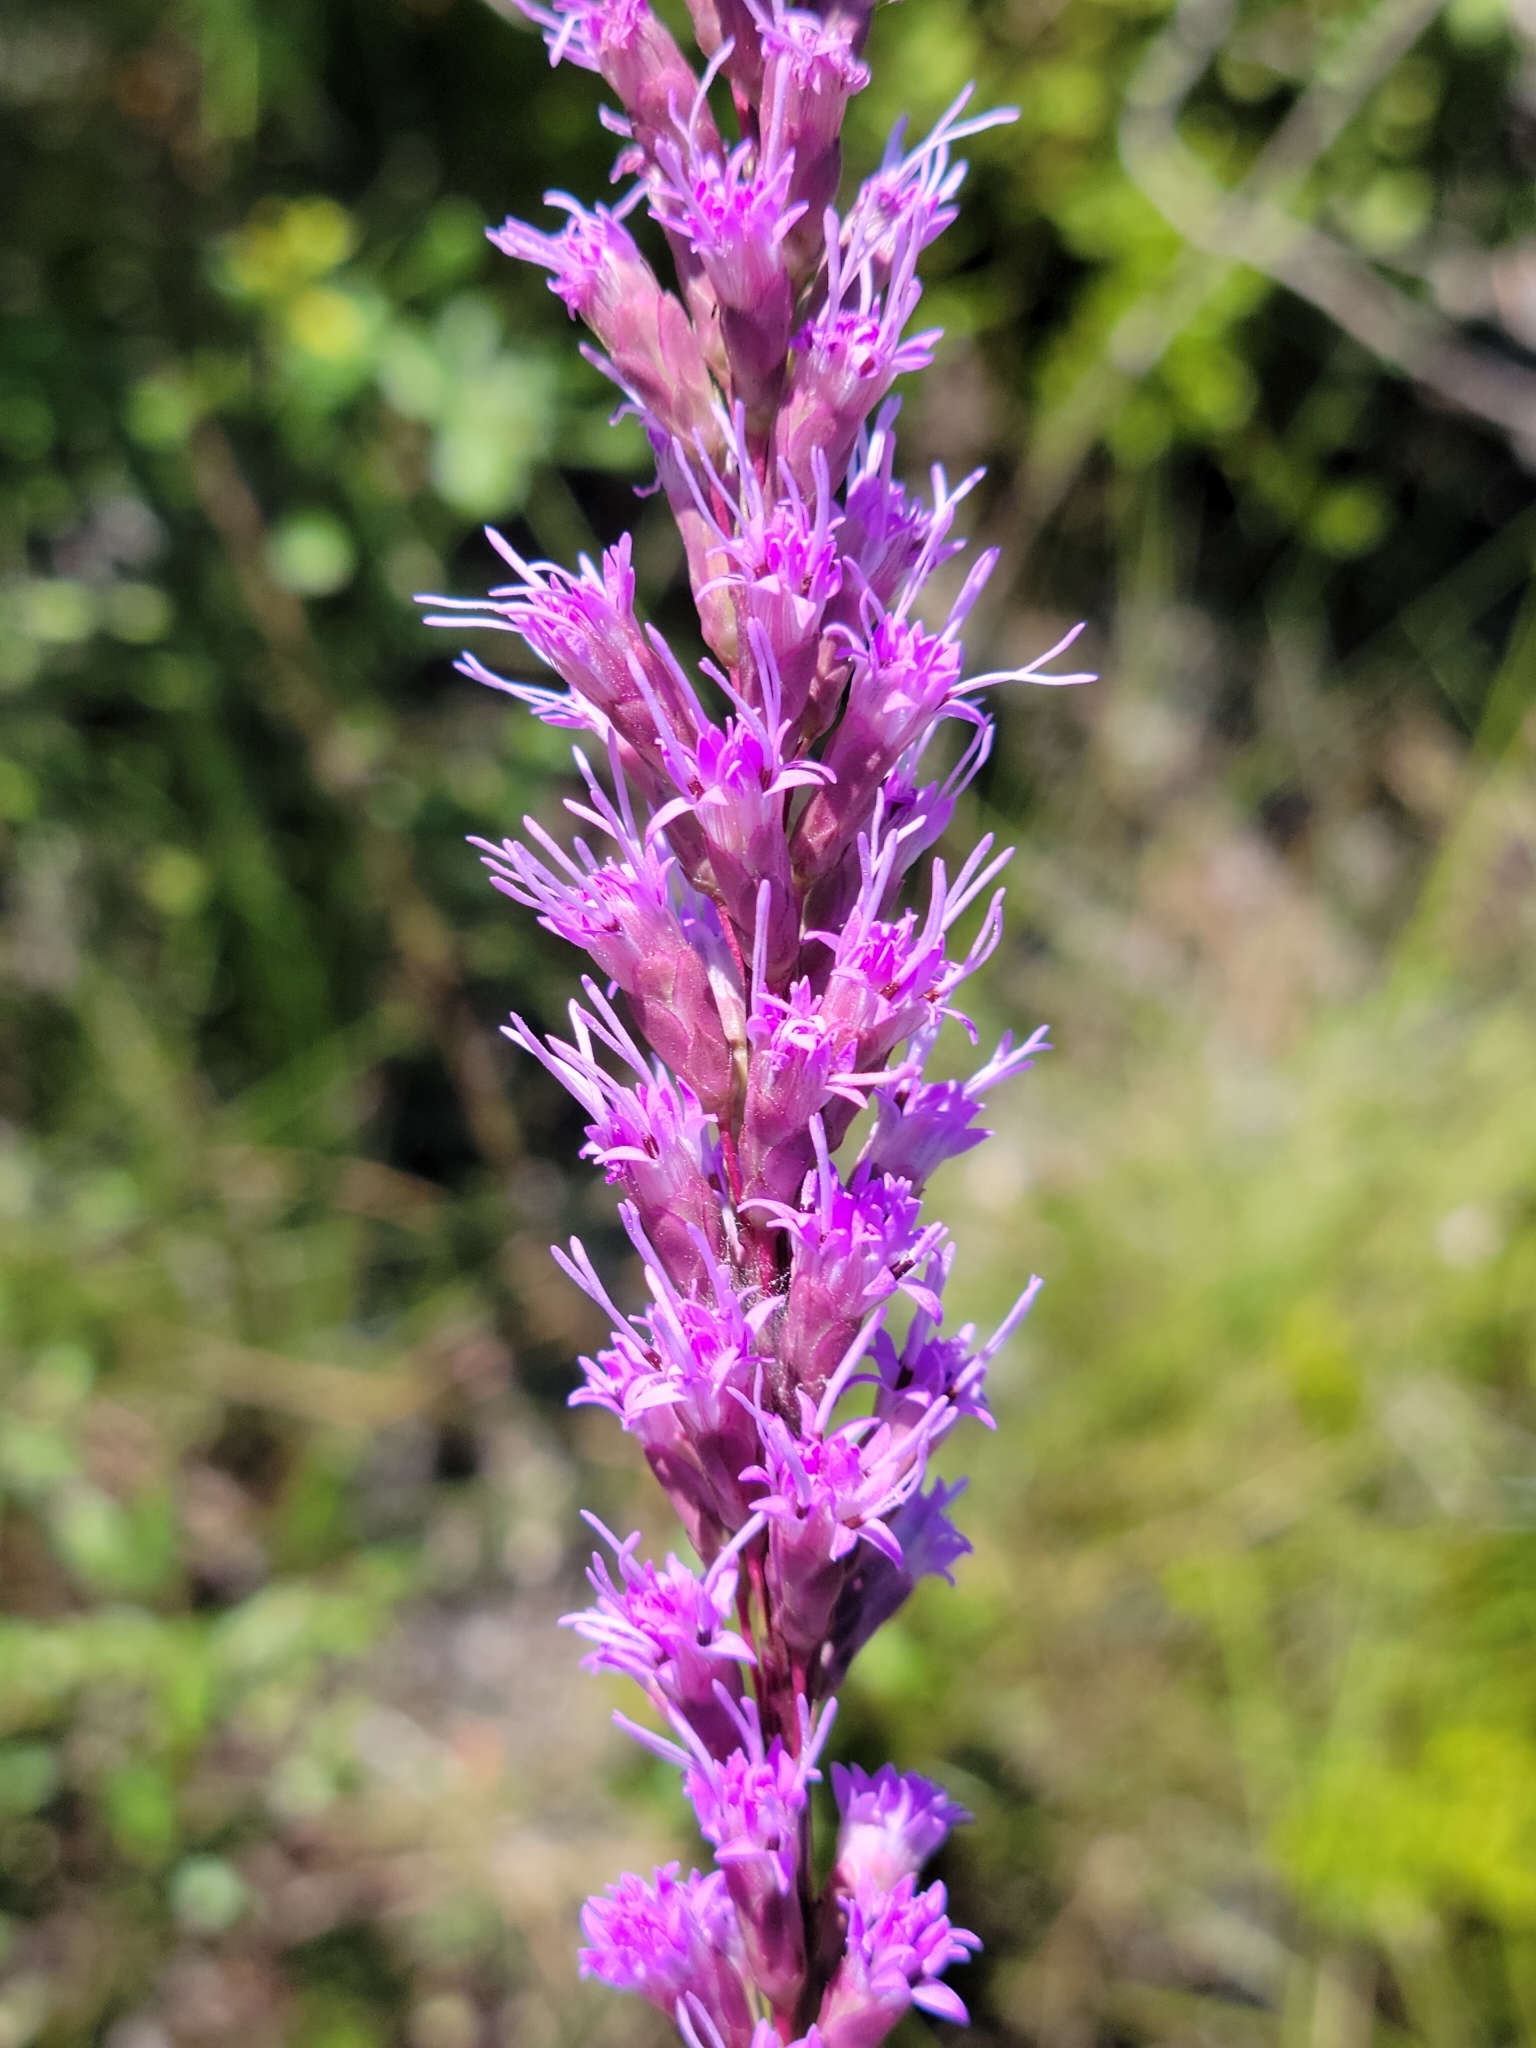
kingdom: Plantae
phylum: Tracheophyta
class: Magnoliopsida
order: Asterales
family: Asteraceae
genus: Liatris
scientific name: Liatris laevigata
